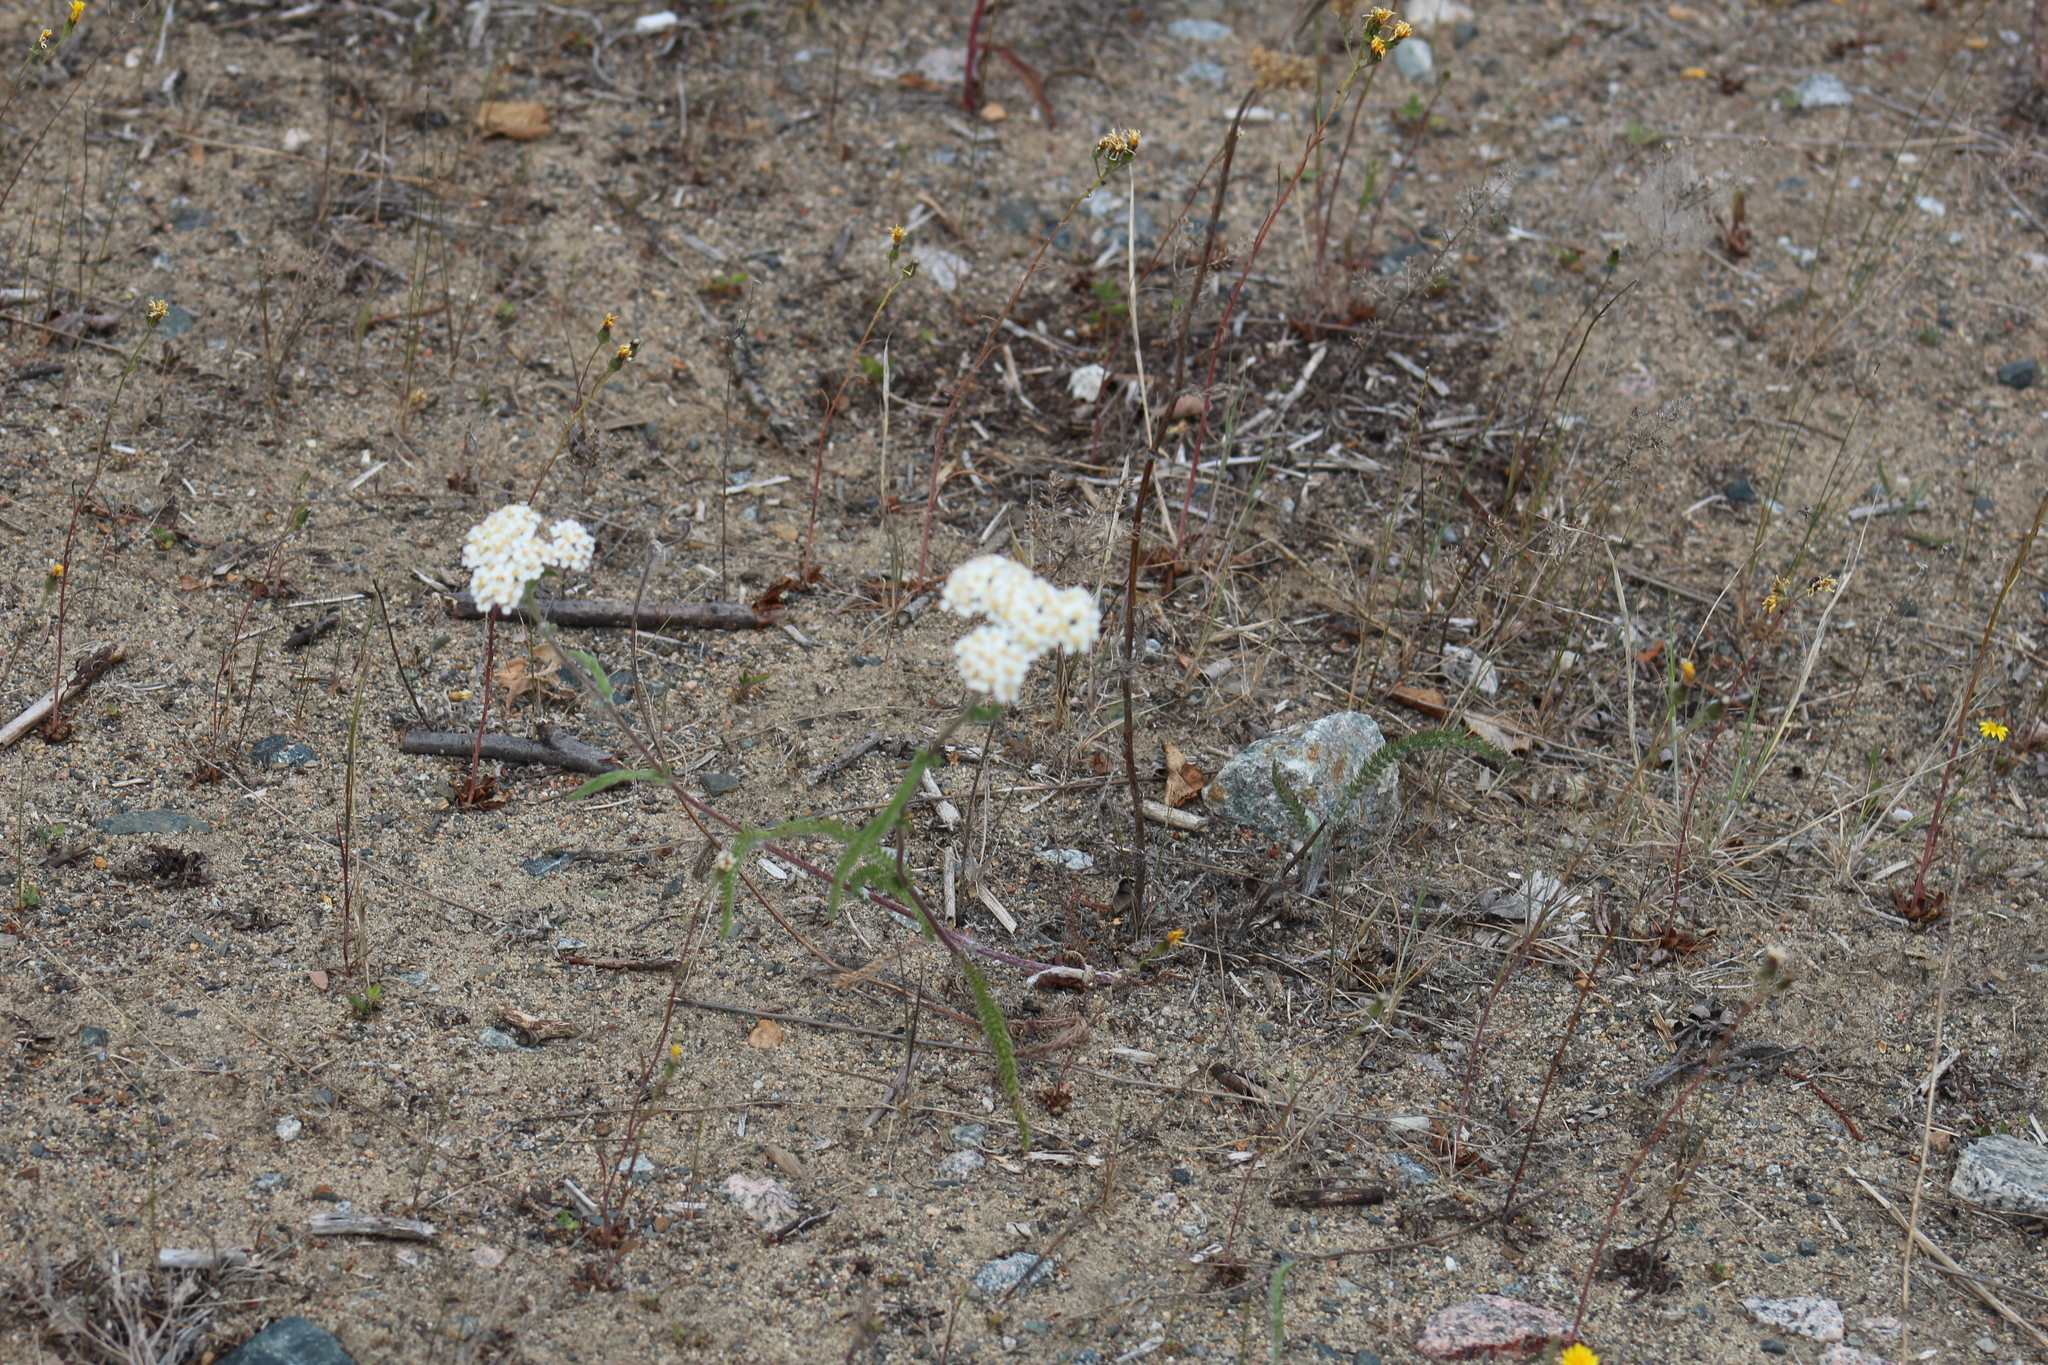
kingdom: Plantae
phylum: Tracheophyta
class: Magnoliopsida
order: Asterales
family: Asteraceae
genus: Achillea
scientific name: Achillea millefolium
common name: Yarrow
